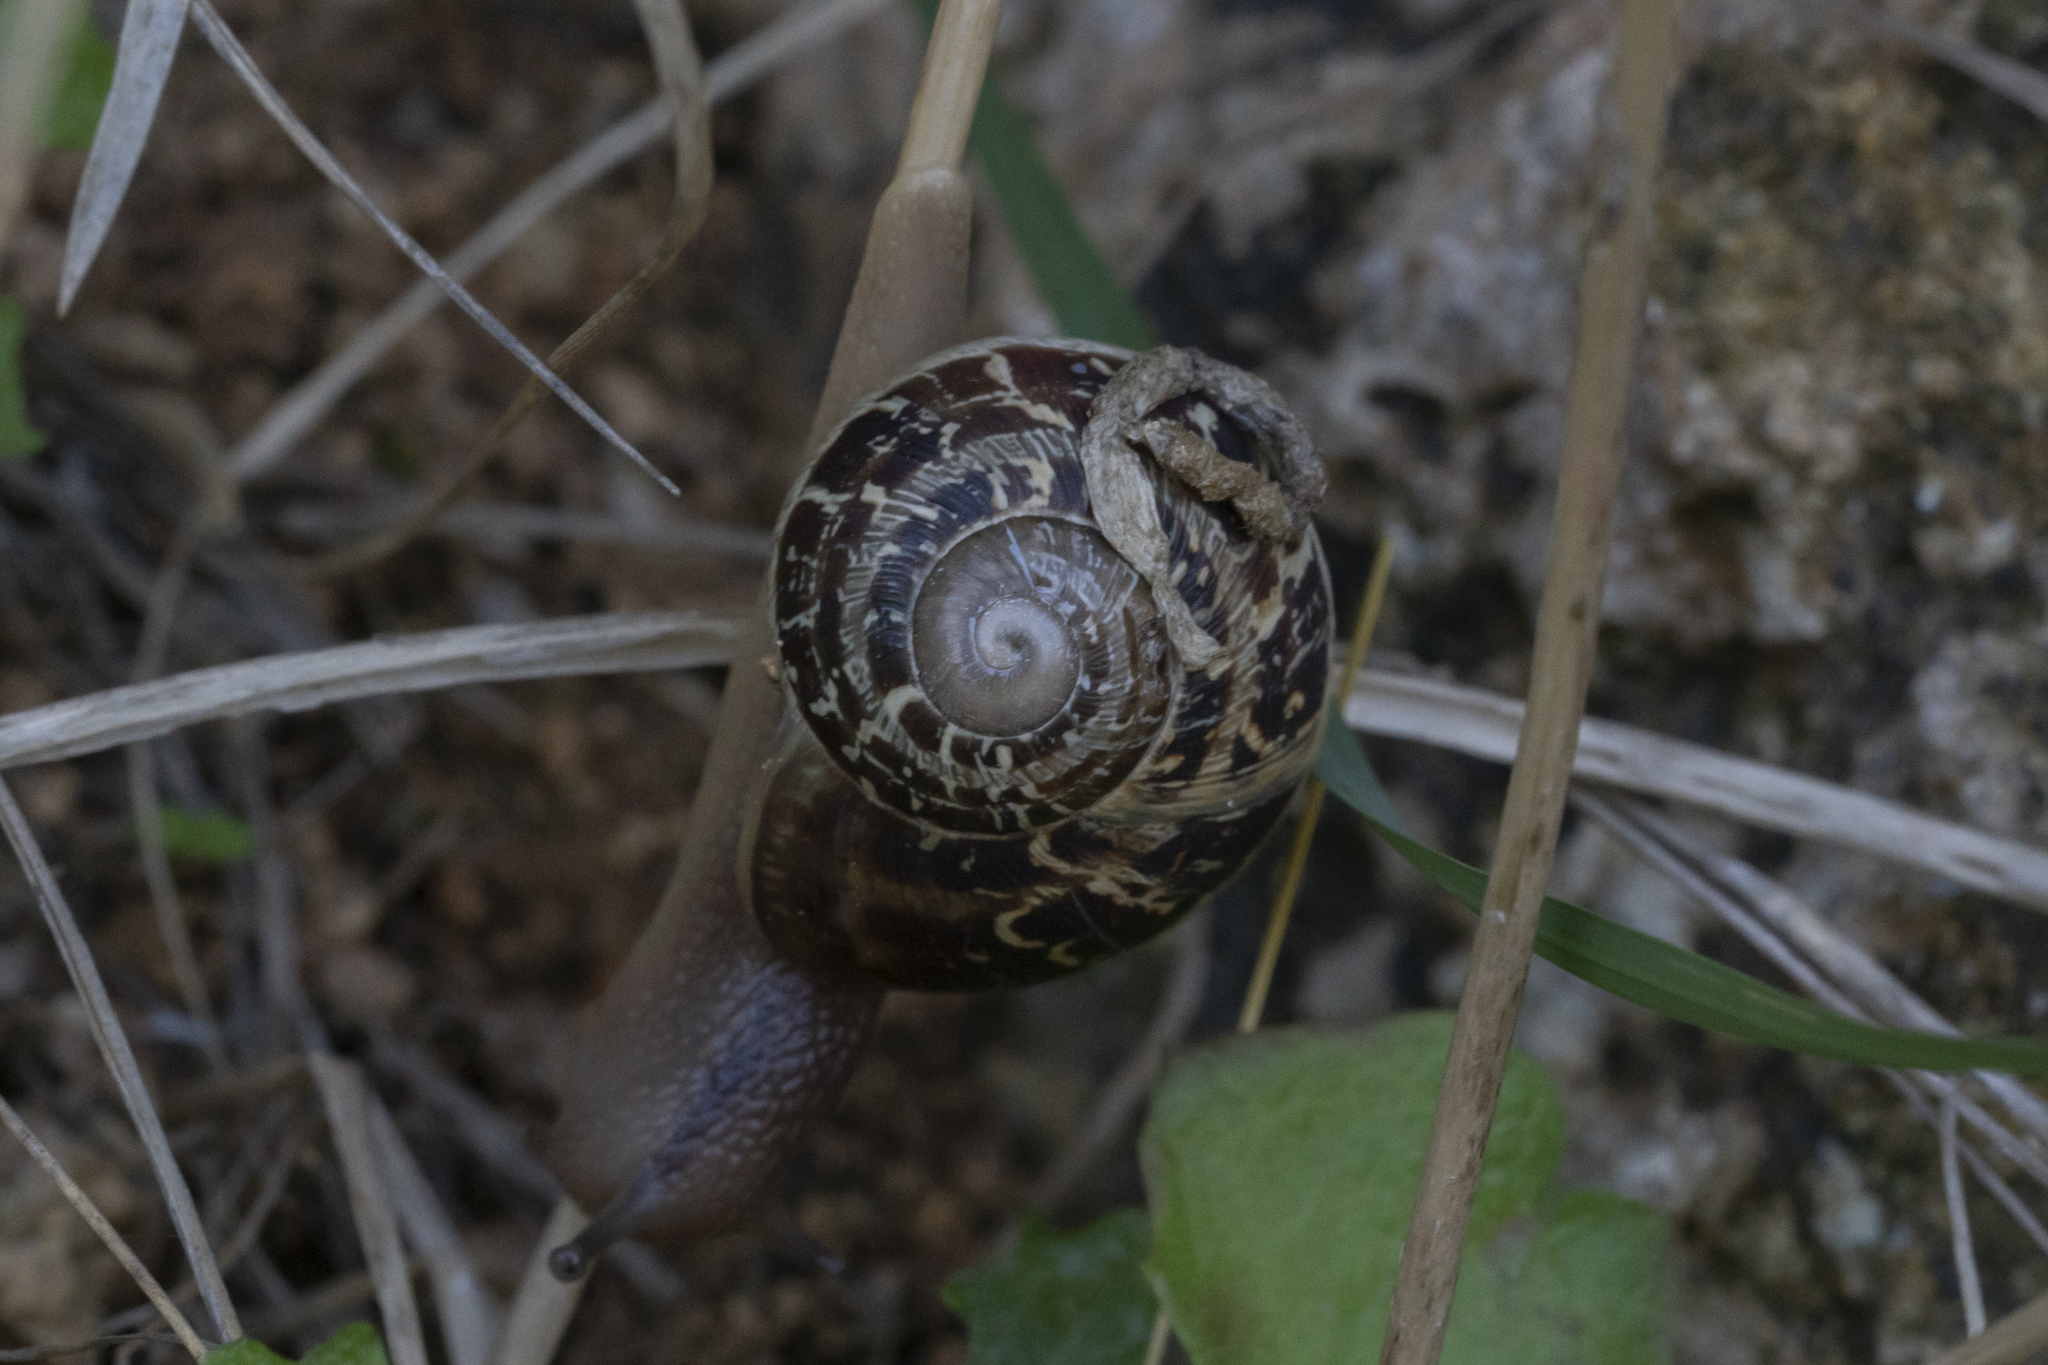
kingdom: Animalia
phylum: Mollusca
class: Gastropoda
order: Stylommatophora
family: Helicidae
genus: Cornu
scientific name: Cornu aspersum
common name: Brown garden snail
